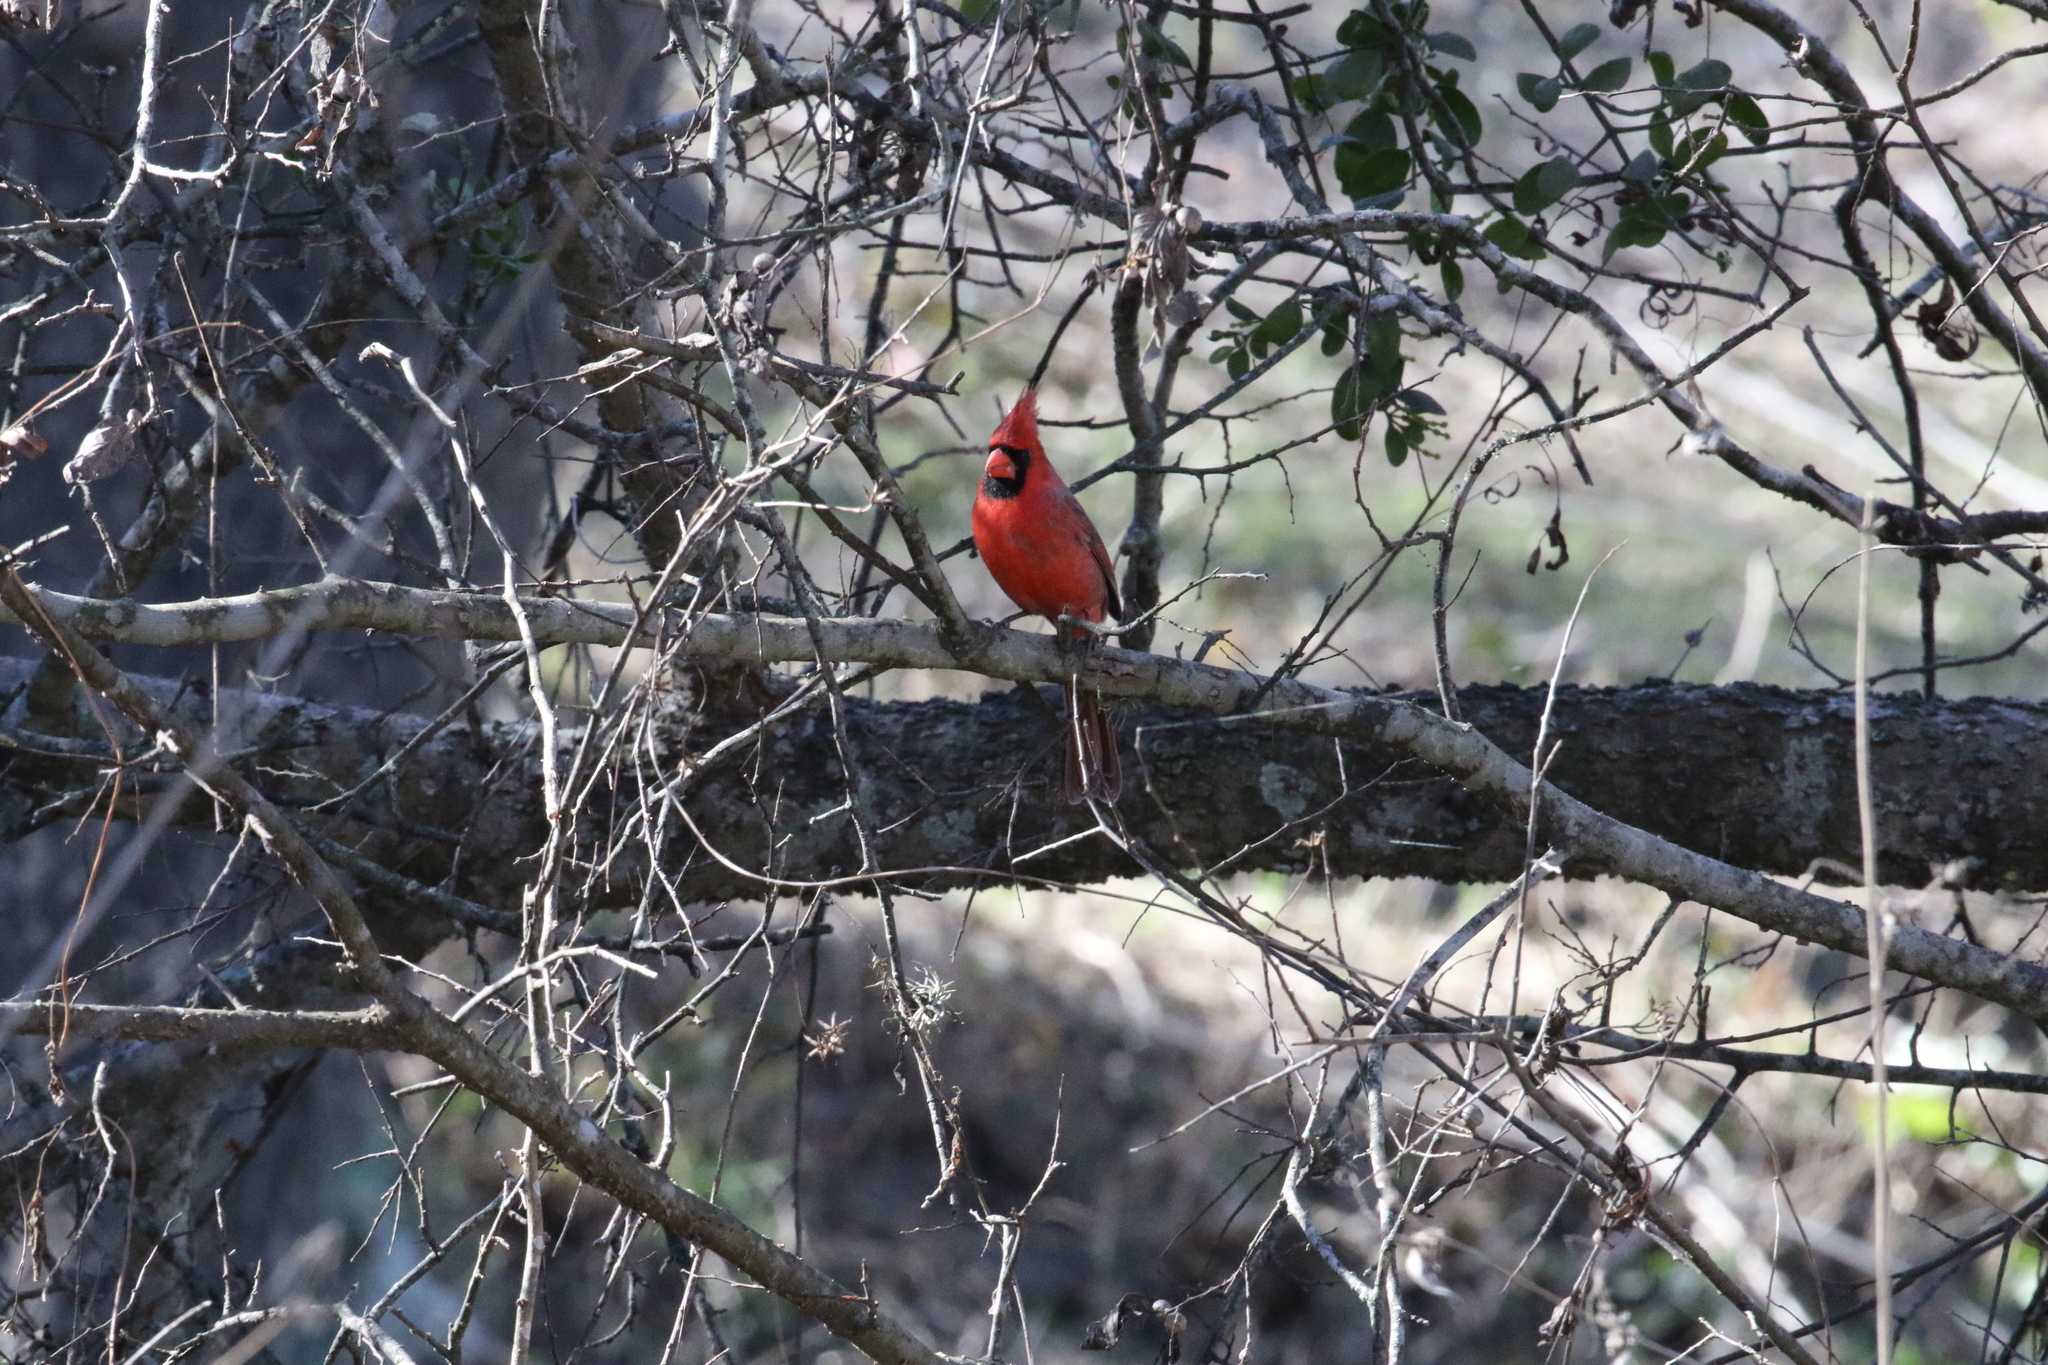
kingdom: Animalia
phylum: Chordata
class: Aves
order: Passeriformes
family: Cardinalidae
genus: Cardinalis
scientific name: Cardinalis cardinalis
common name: Northern cardinal
